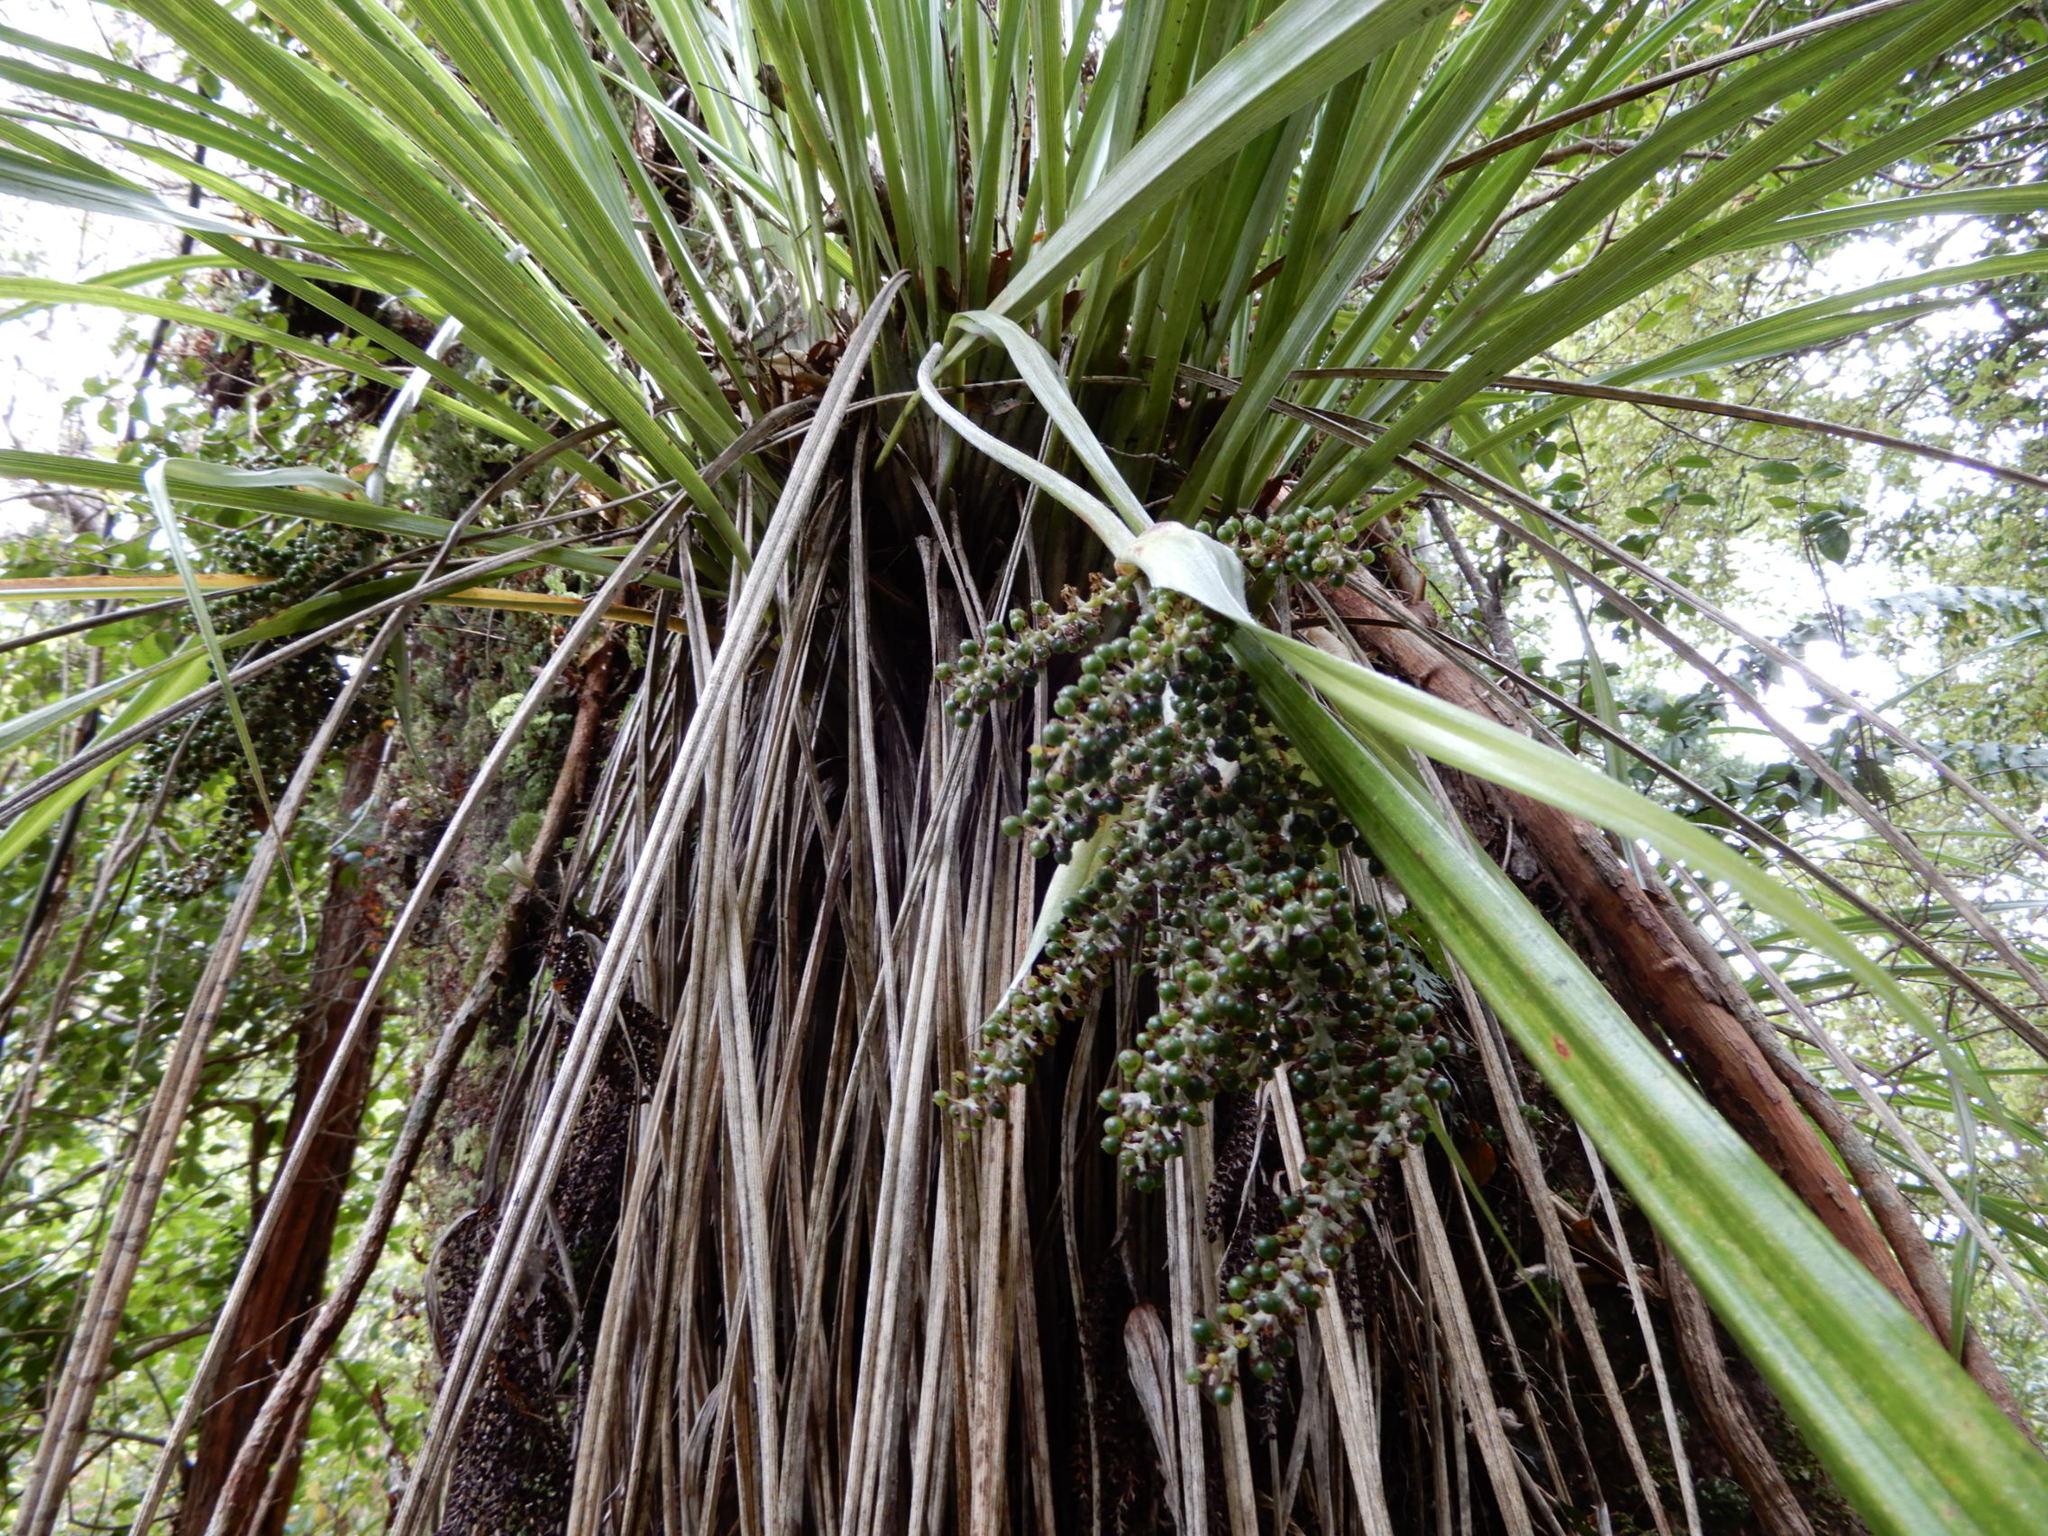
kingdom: Plantae
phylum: Tracheophyta
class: Liliopsida
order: Asparagales
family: Asteliaceae
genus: Astelia
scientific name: Astelia solandri
